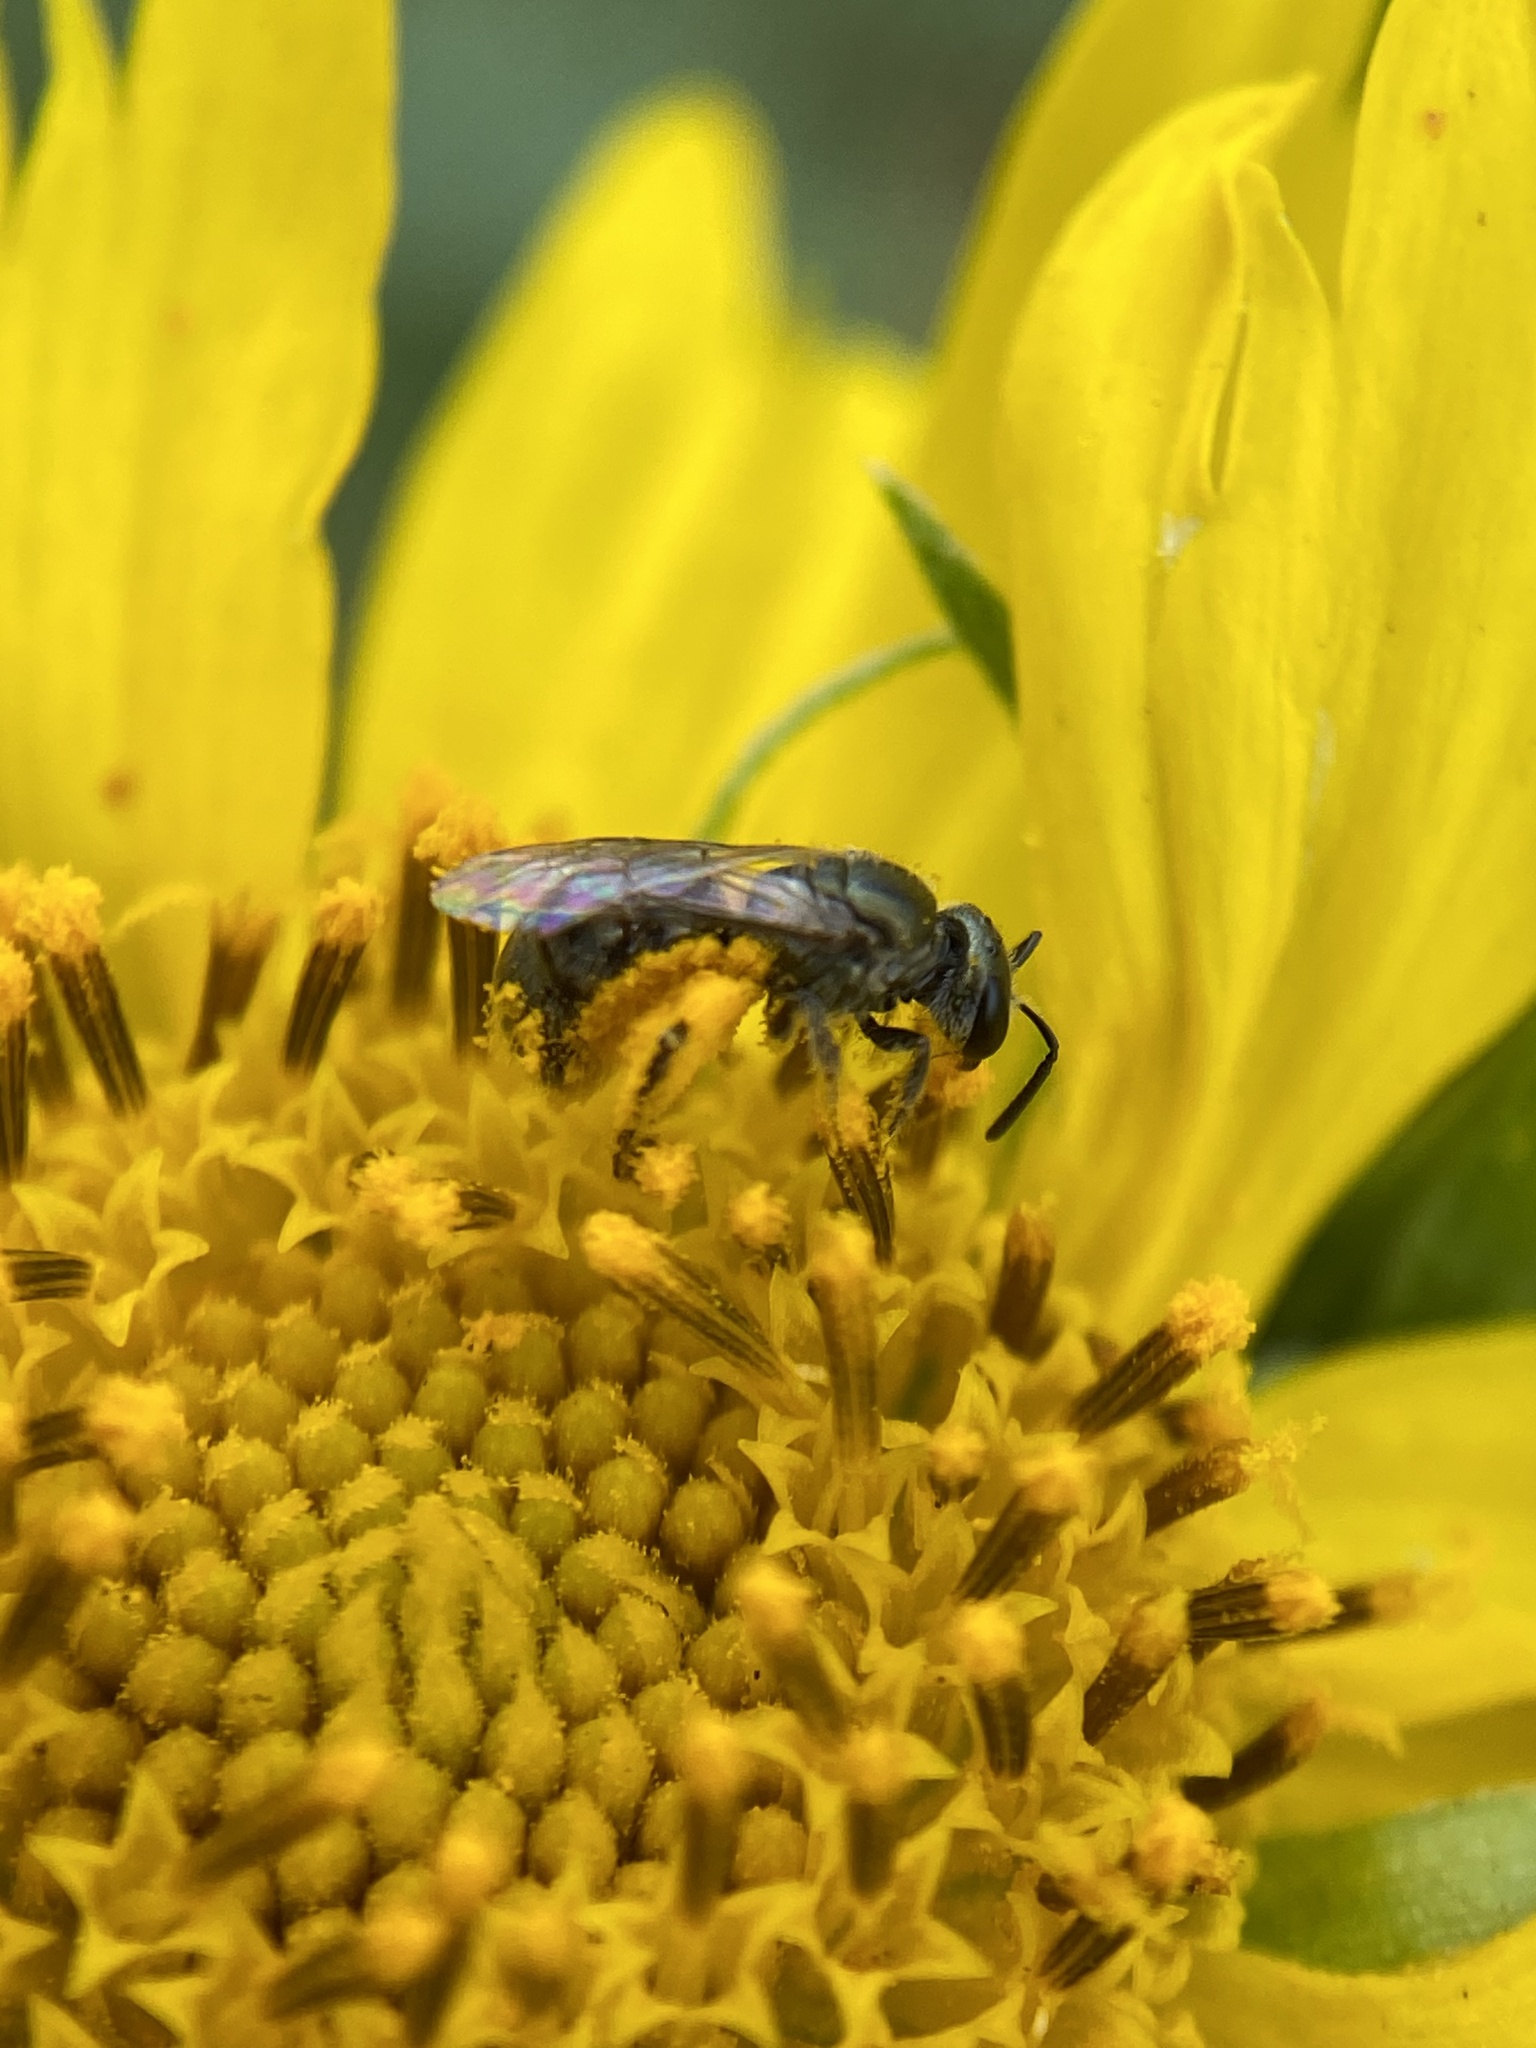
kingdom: Animalia
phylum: Arthropoda
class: Insecta
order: Hymenoptera
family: Halictidae
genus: Dialictus
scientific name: Dialictus
